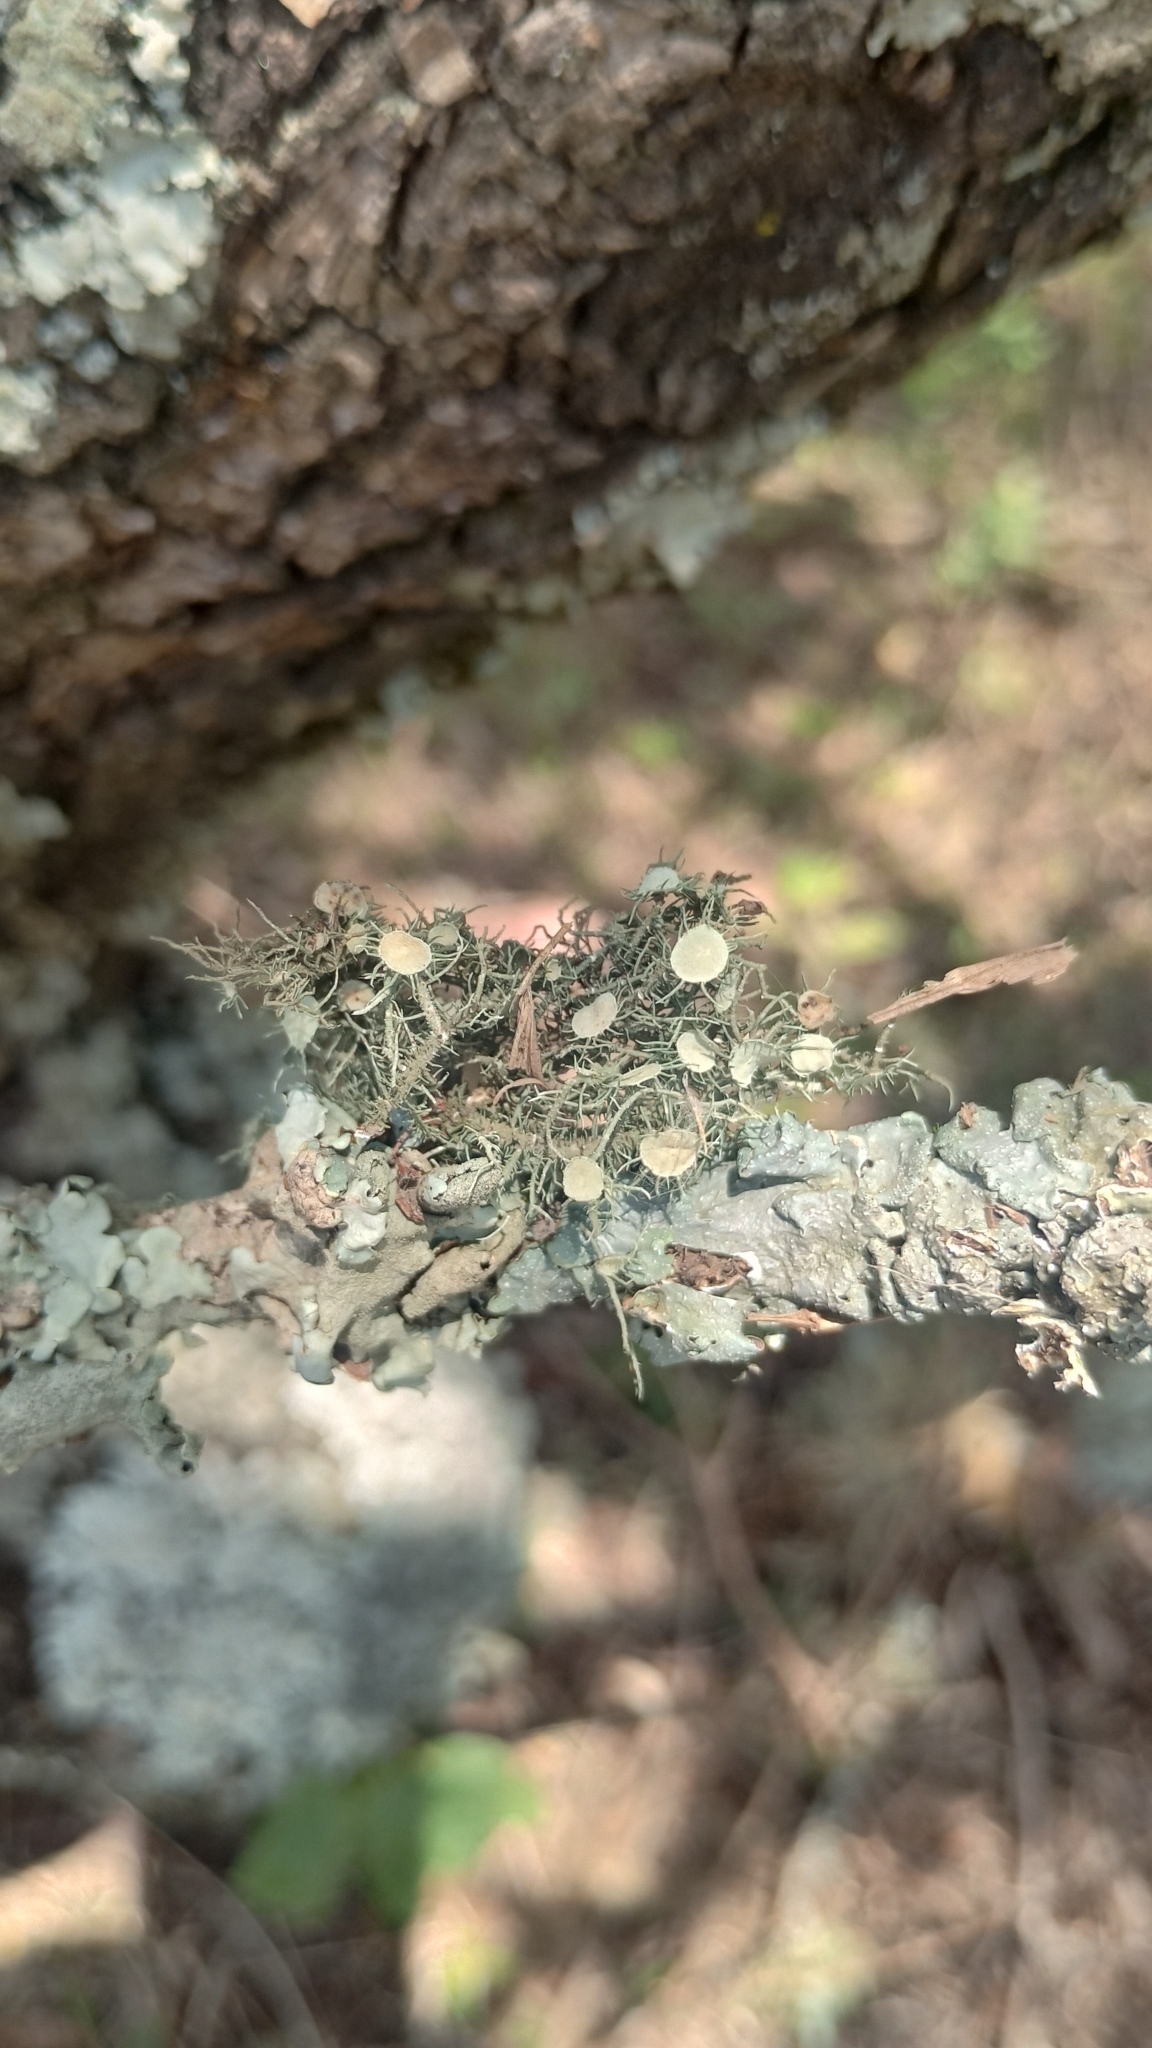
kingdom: Fungi
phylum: Ascomycota
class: Lecanoromycetes
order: Lecanorales
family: Parmeliaceae
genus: Usnea
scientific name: Usnea strigosa
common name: Bushy beard lichen
